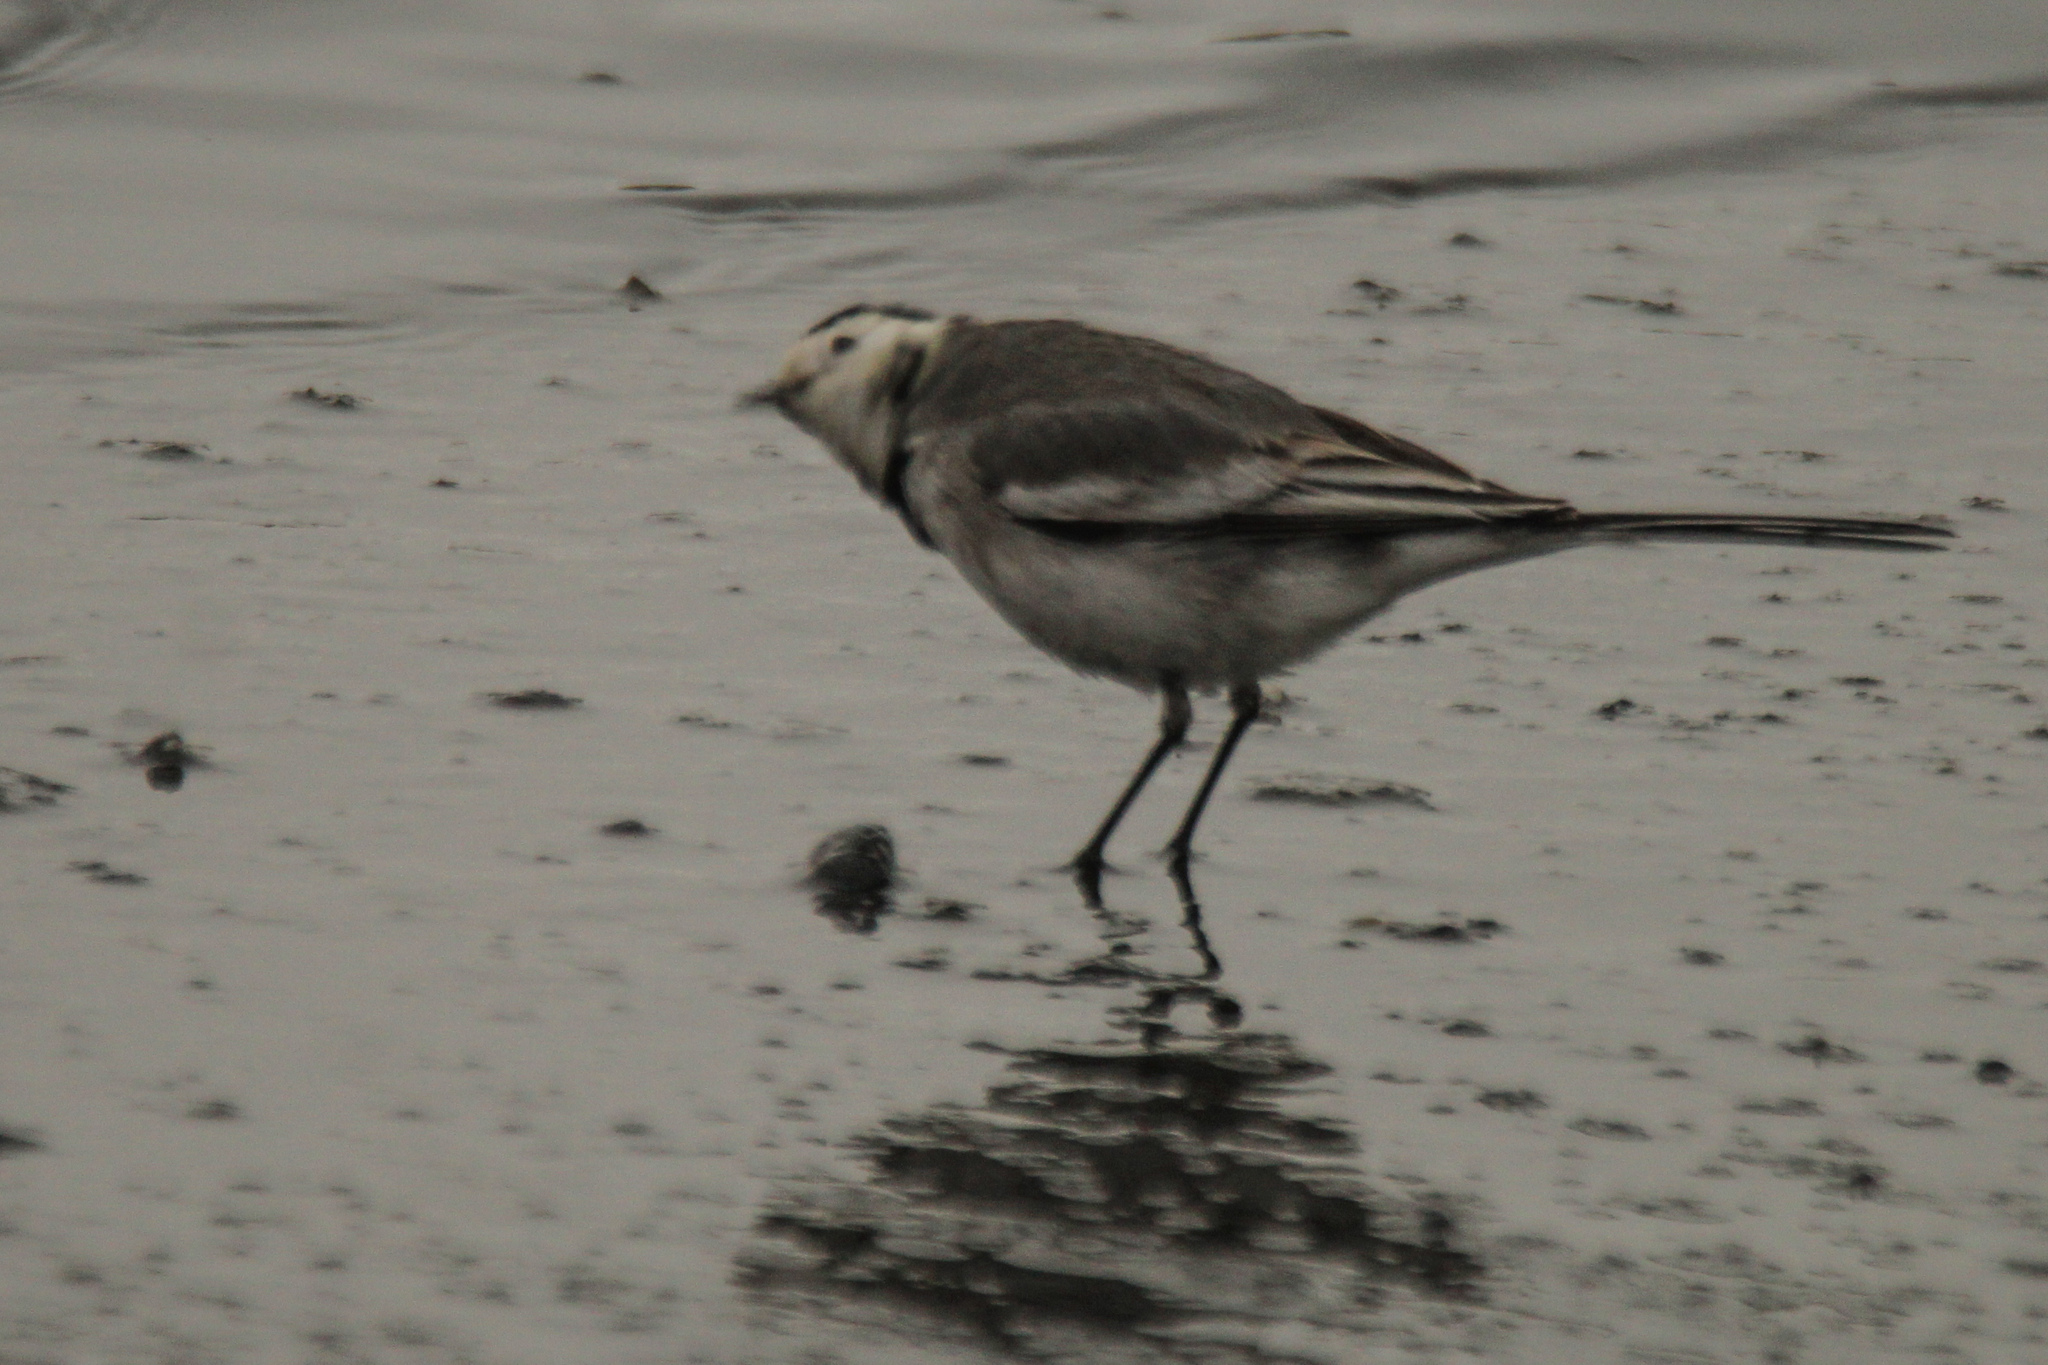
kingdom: Animalia
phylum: Chordata
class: Aves
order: Passeriformes
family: Motacillidae
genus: Motacilla
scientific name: Motacilla alba
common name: White wagtail
